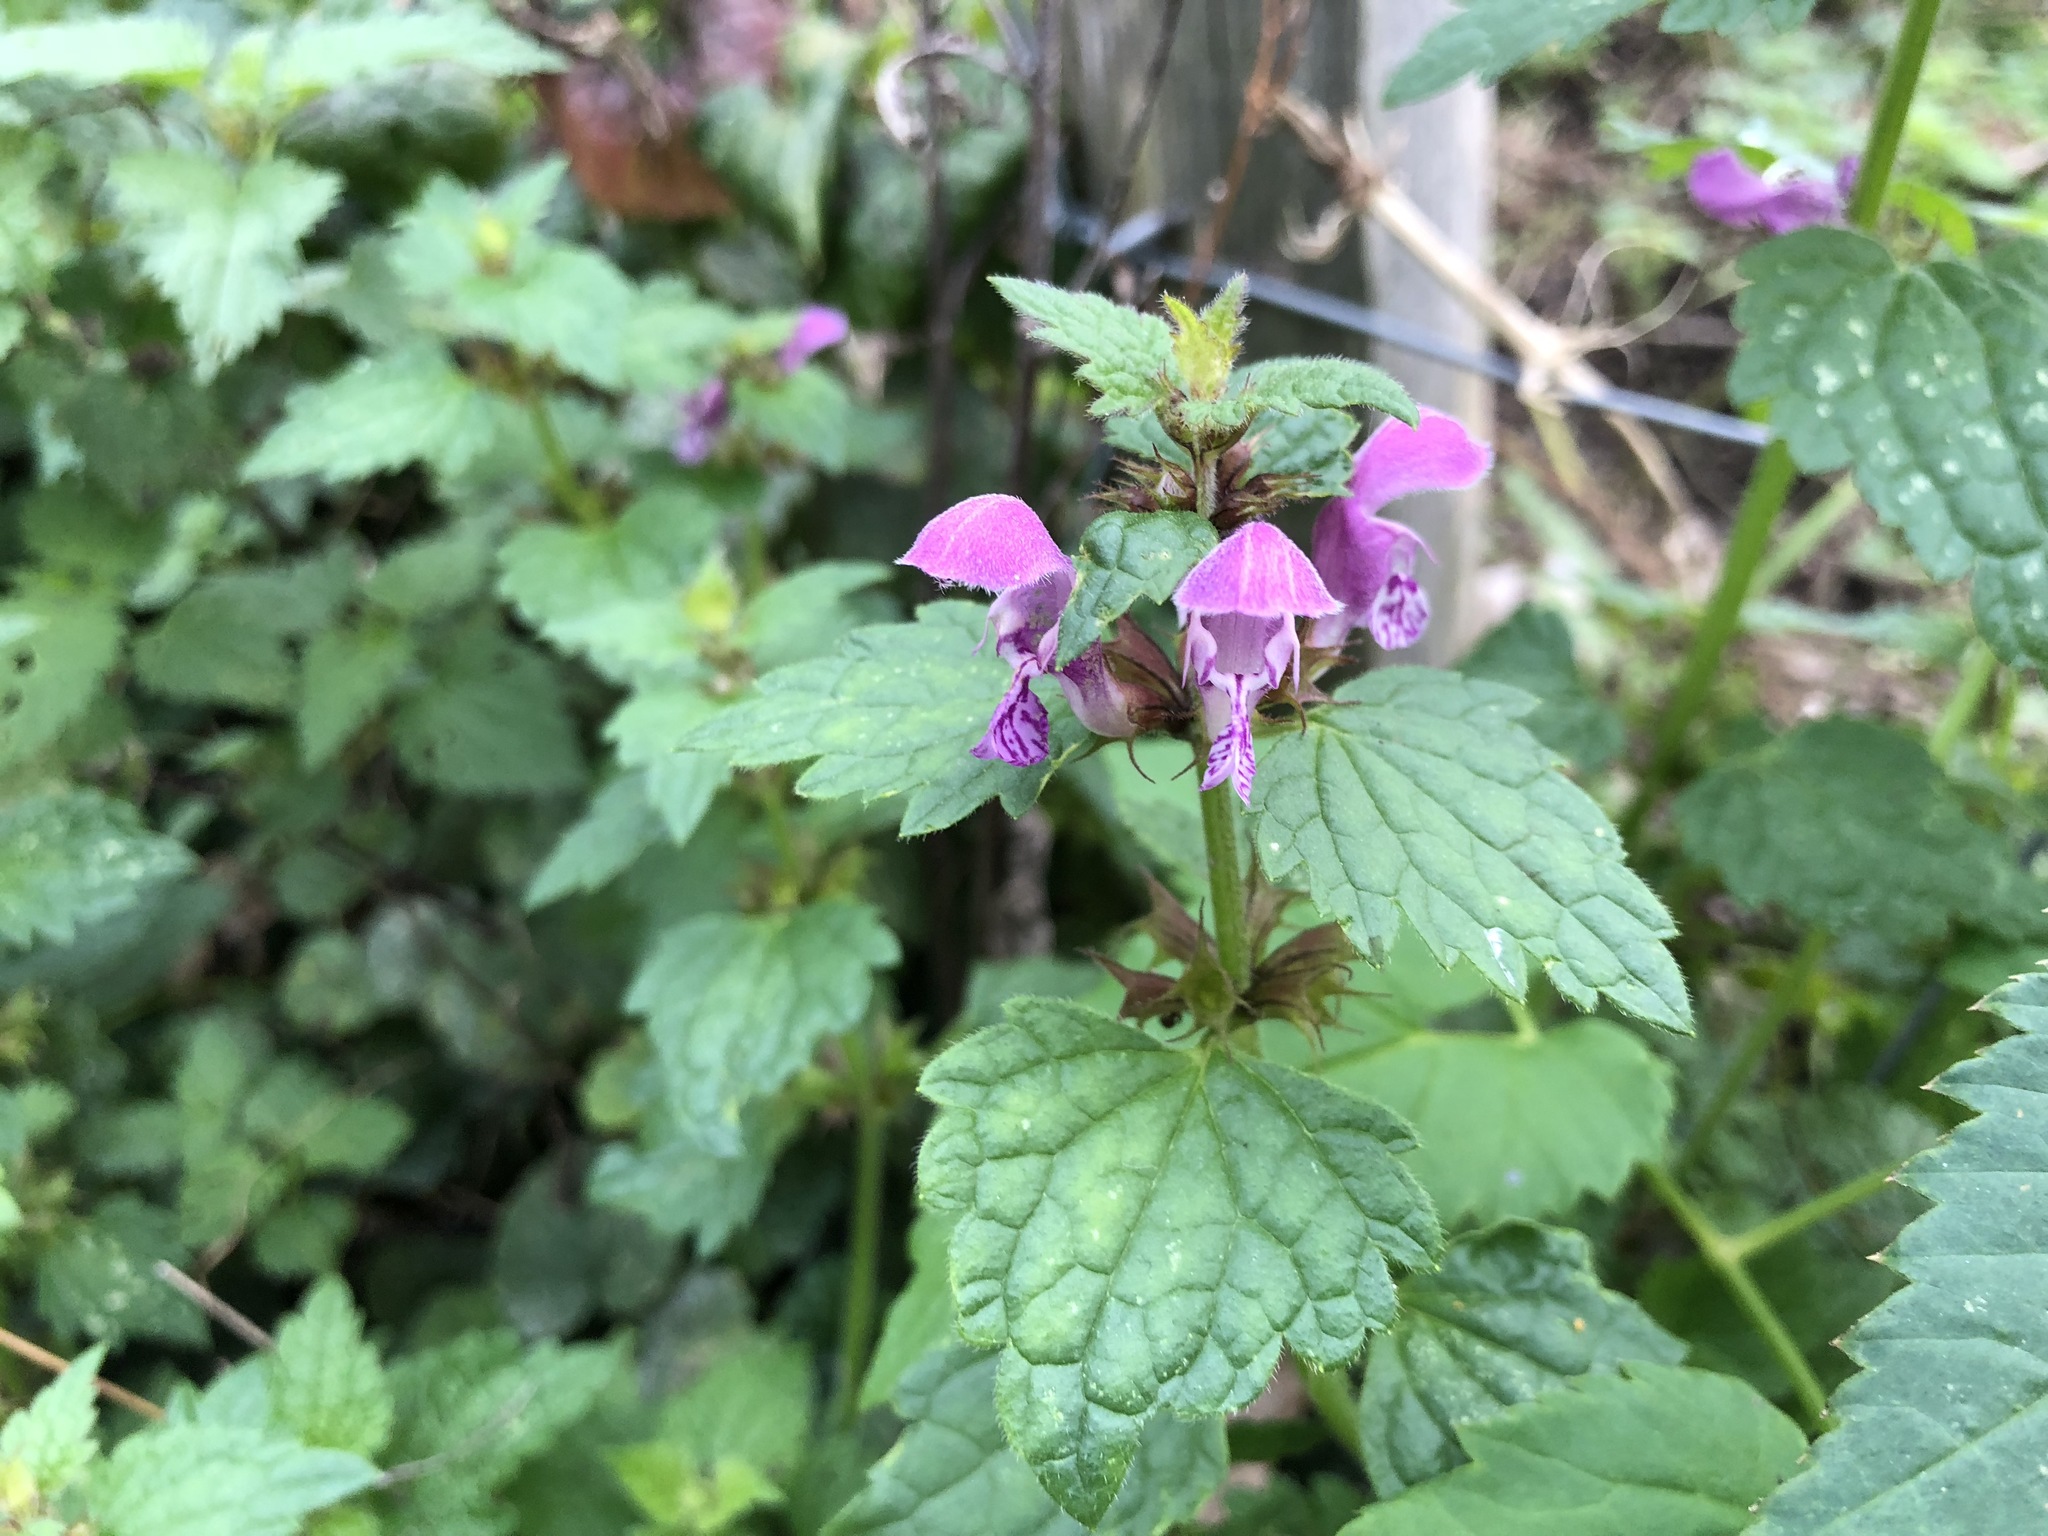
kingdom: Plantae
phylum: Tracheophyta
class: Magnoliopsida
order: Lamiales
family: Lamiaceae
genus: Lamium
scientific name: Lamium maculatum
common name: Spotted dead-nettle
